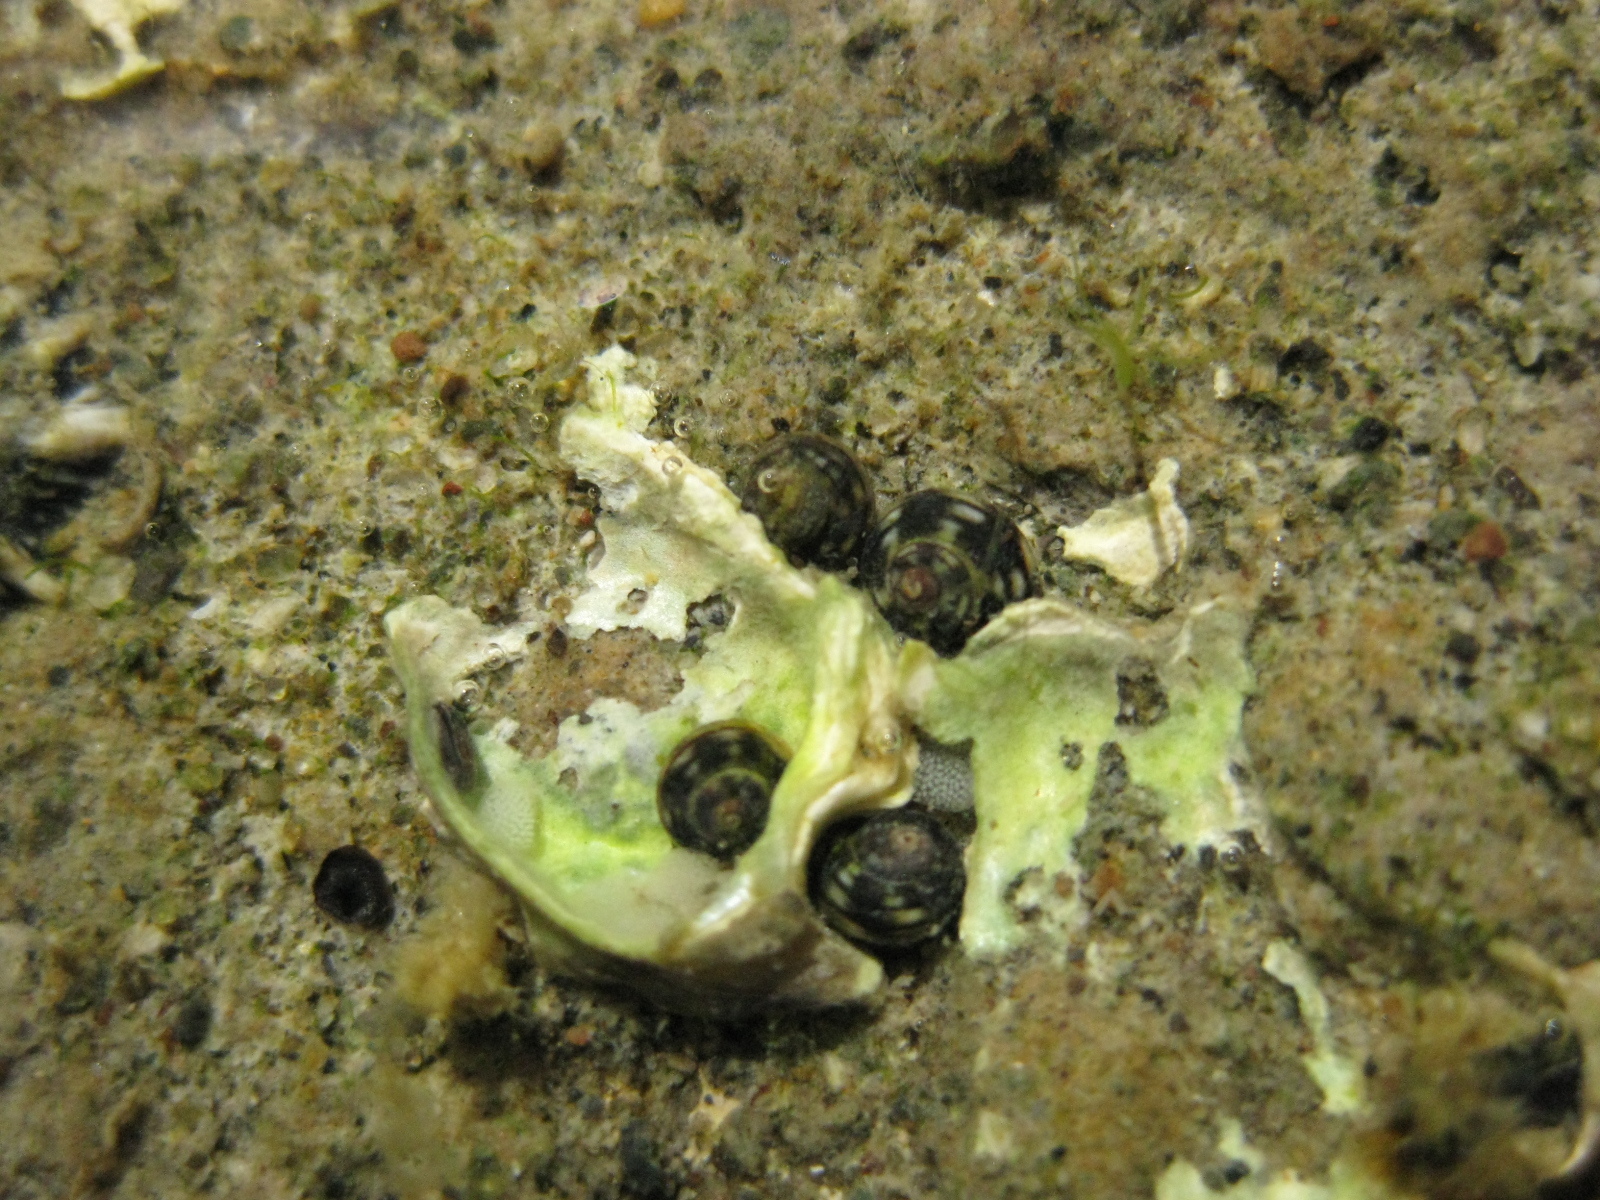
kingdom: Animalia
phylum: Mollusca
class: Gastropoda
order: Littorinimorpha
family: Littorinidae
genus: Risellopsis
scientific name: Risellopsis varia
